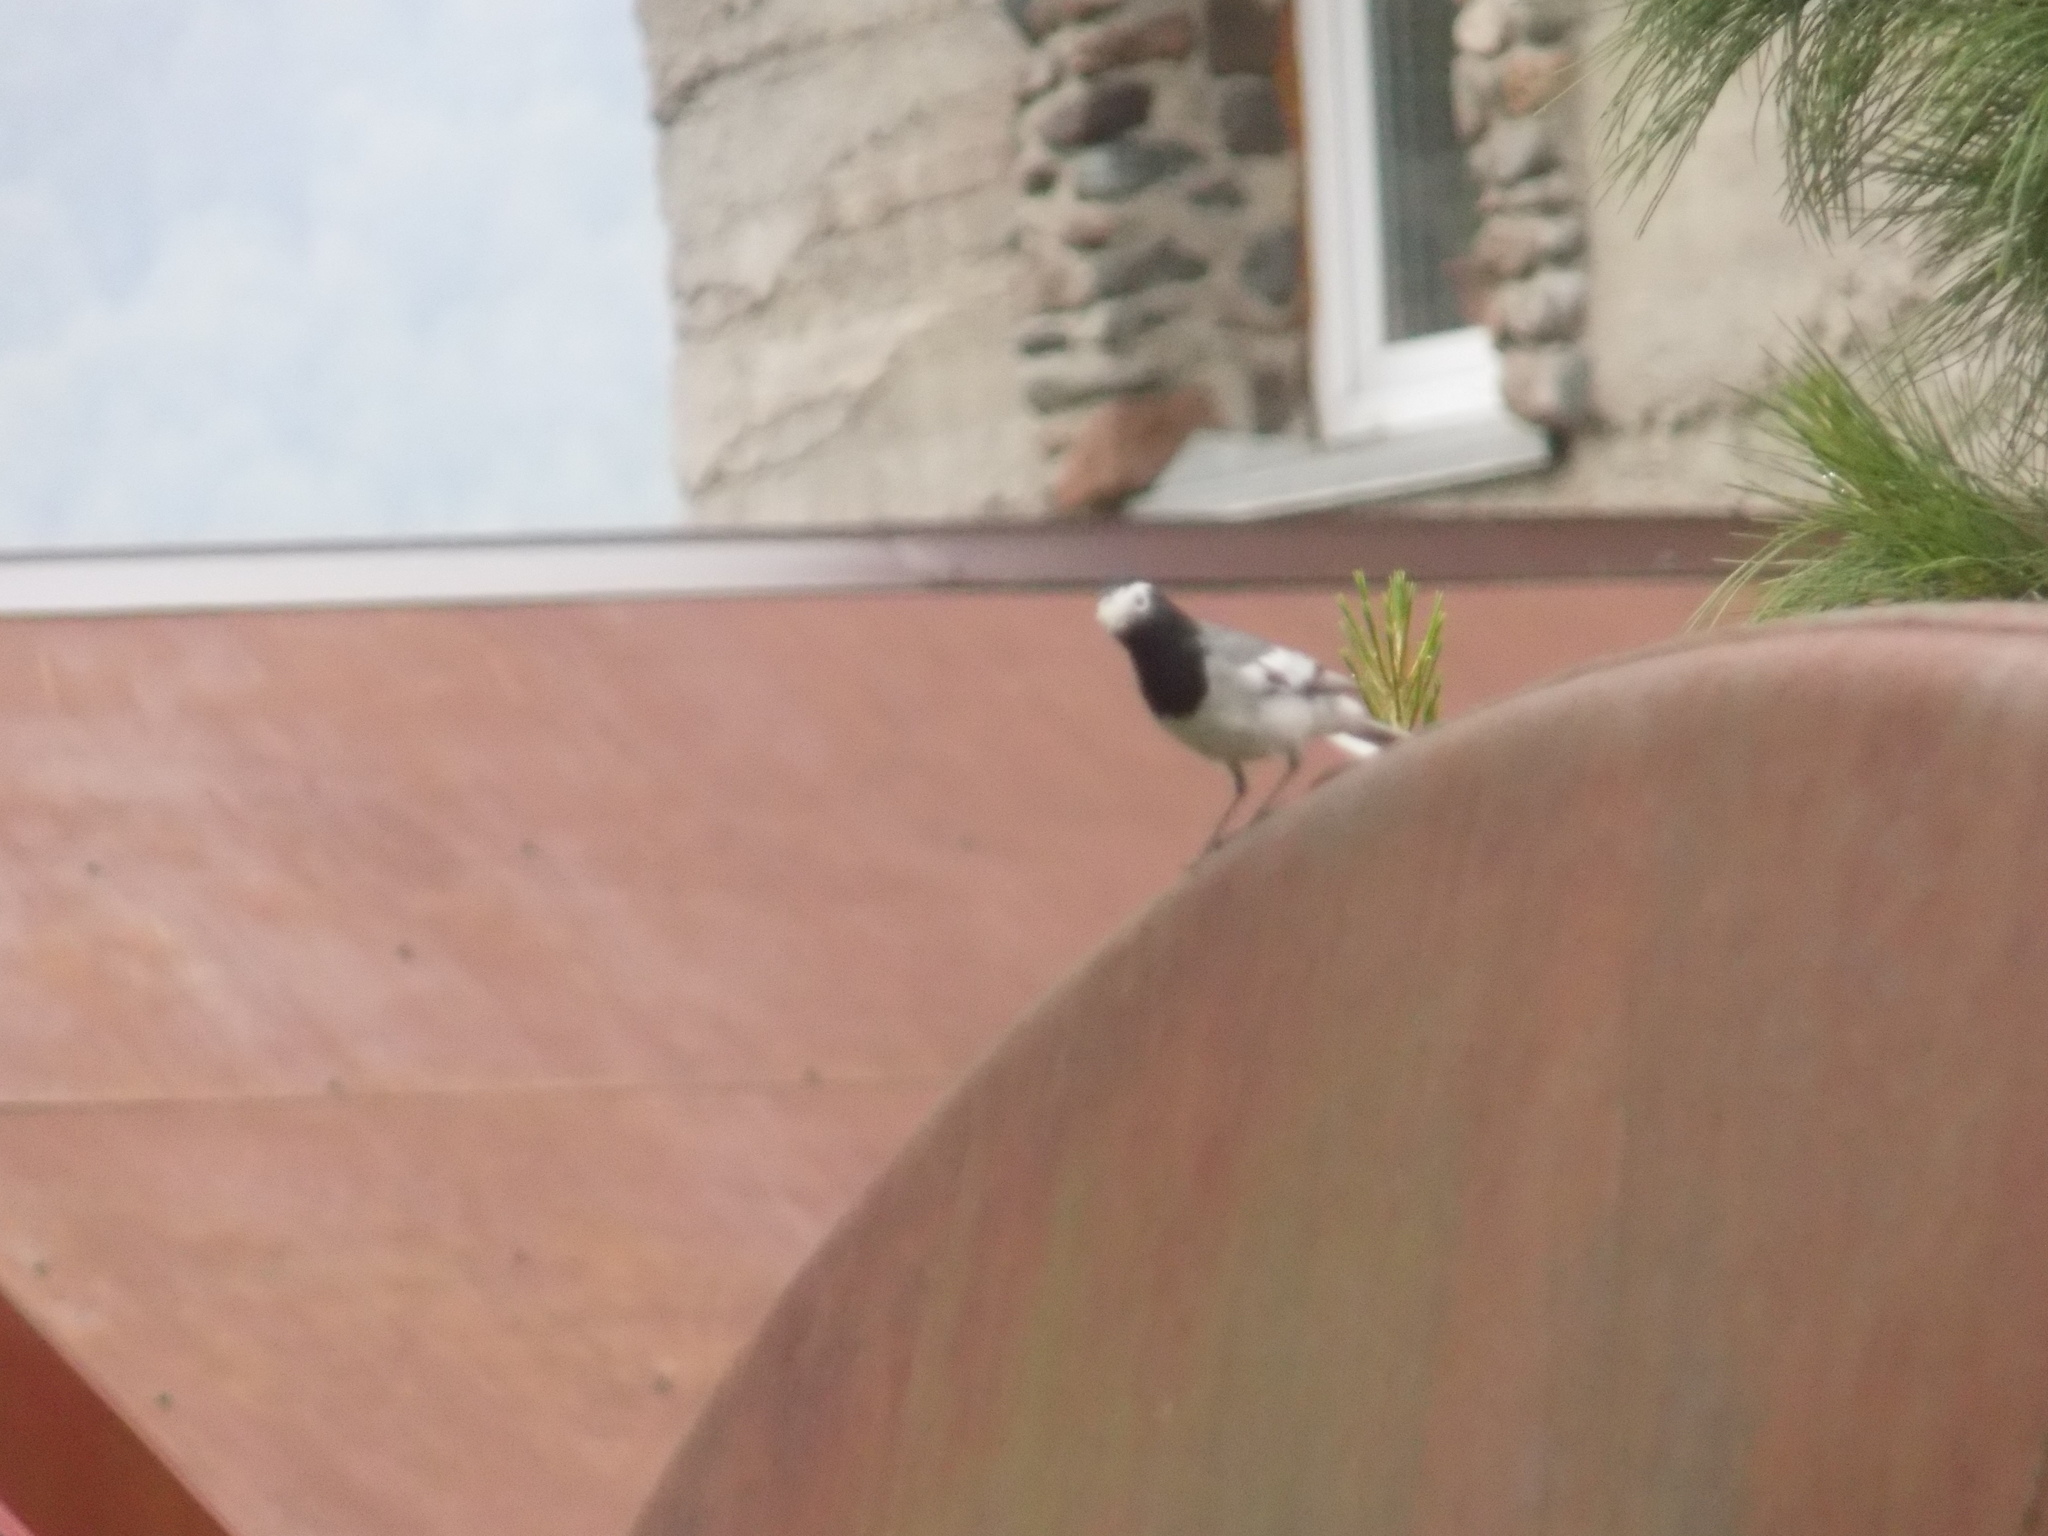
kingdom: Animalia
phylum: Chordata
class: Aves
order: Passeriformes
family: Motacillidae
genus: Motacilla
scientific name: Motacilla alba
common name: White wagtail
